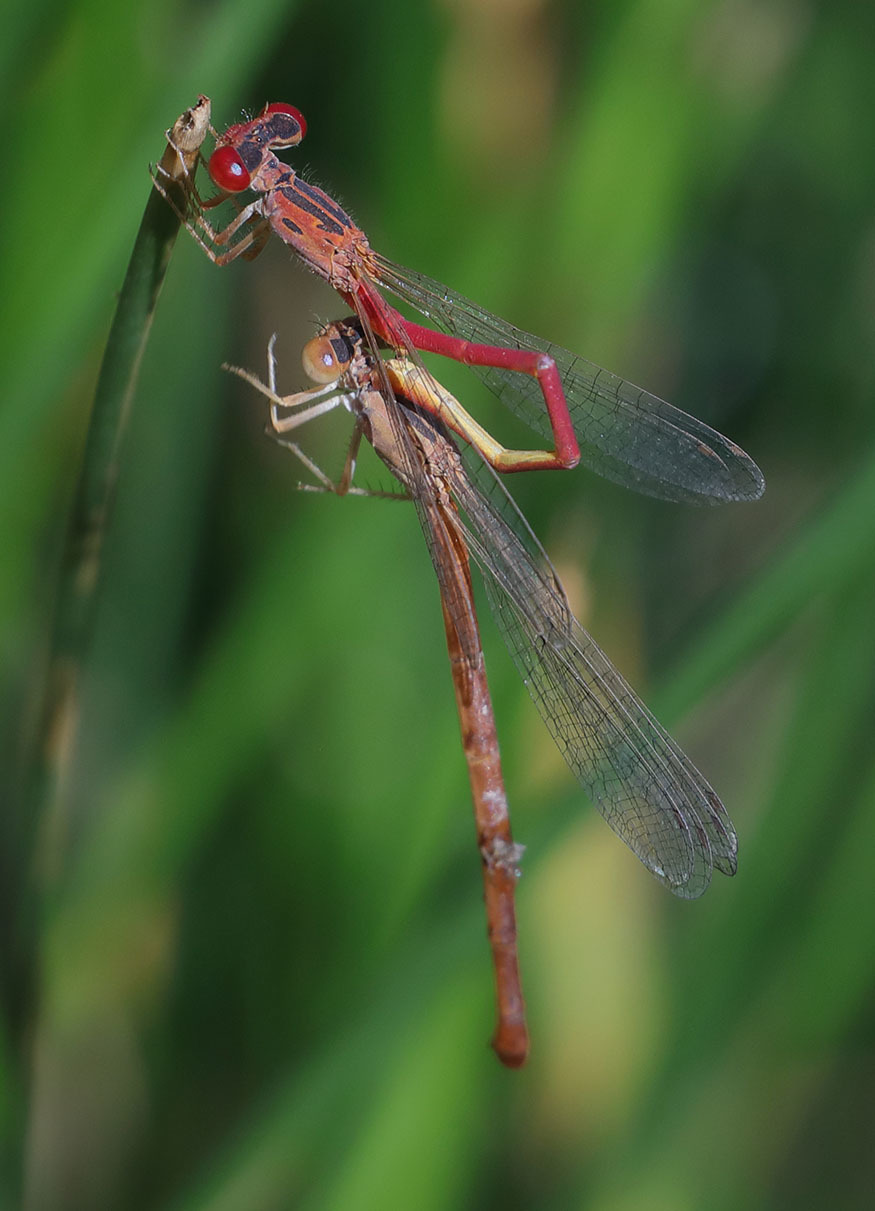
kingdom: Animalia
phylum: Arthropoda
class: Insecta
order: Odonata
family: Coenagrionidae
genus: Telebasis
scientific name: Telebasis salva
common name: Desert firetail
